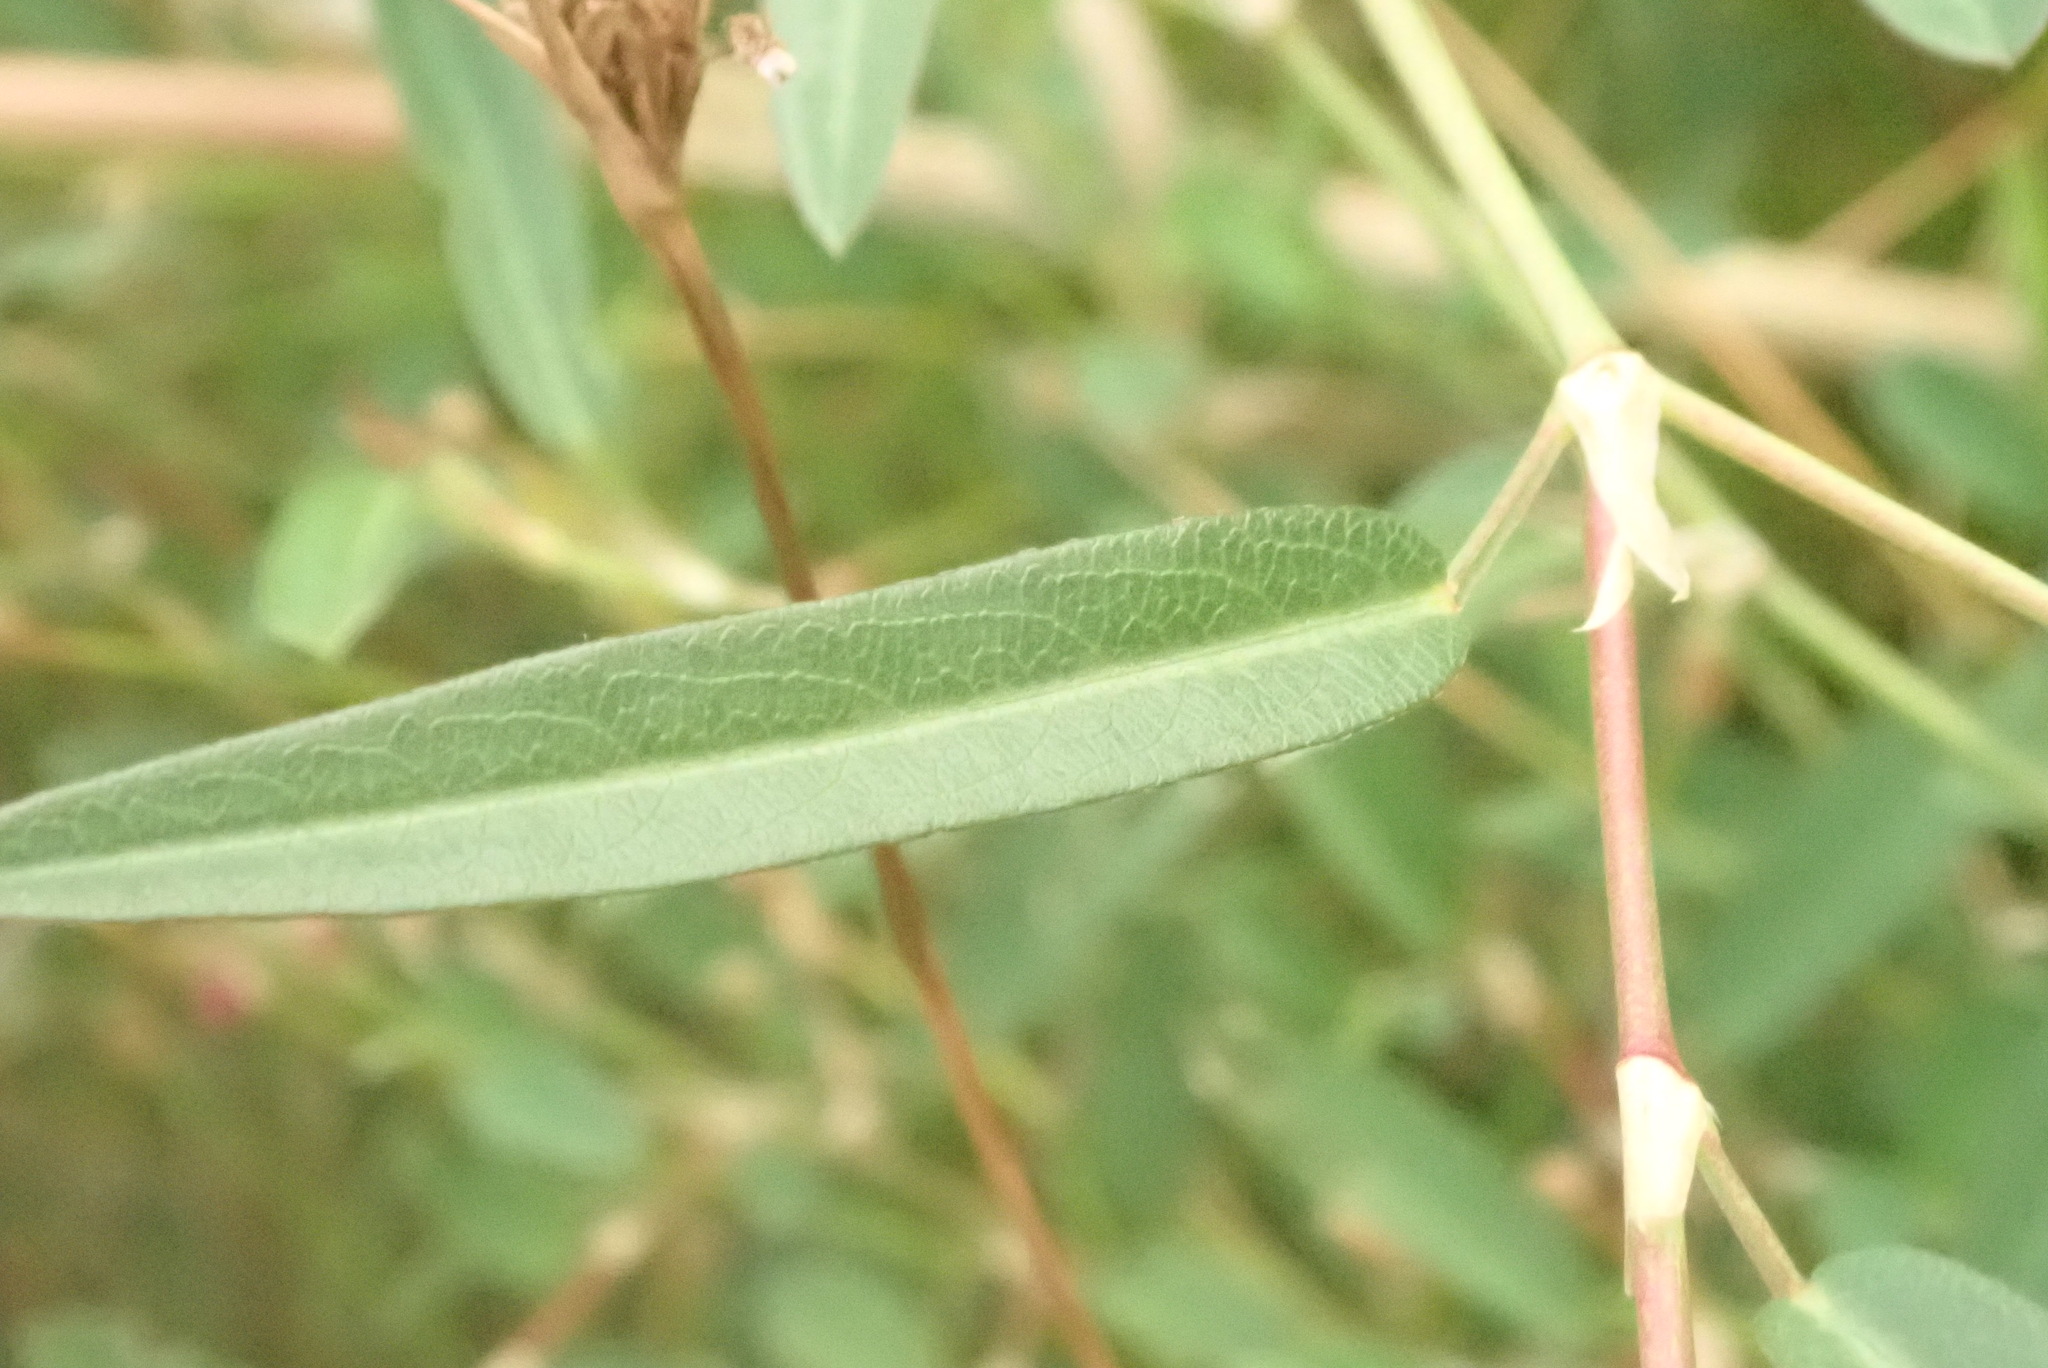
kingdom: Plantae
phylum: Tracheophyta
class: Magnoliopsida
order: Fabales
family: Fabaceae
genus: Alysicarpus
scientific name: Alysicarpus vaginalis
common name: White moneywort
